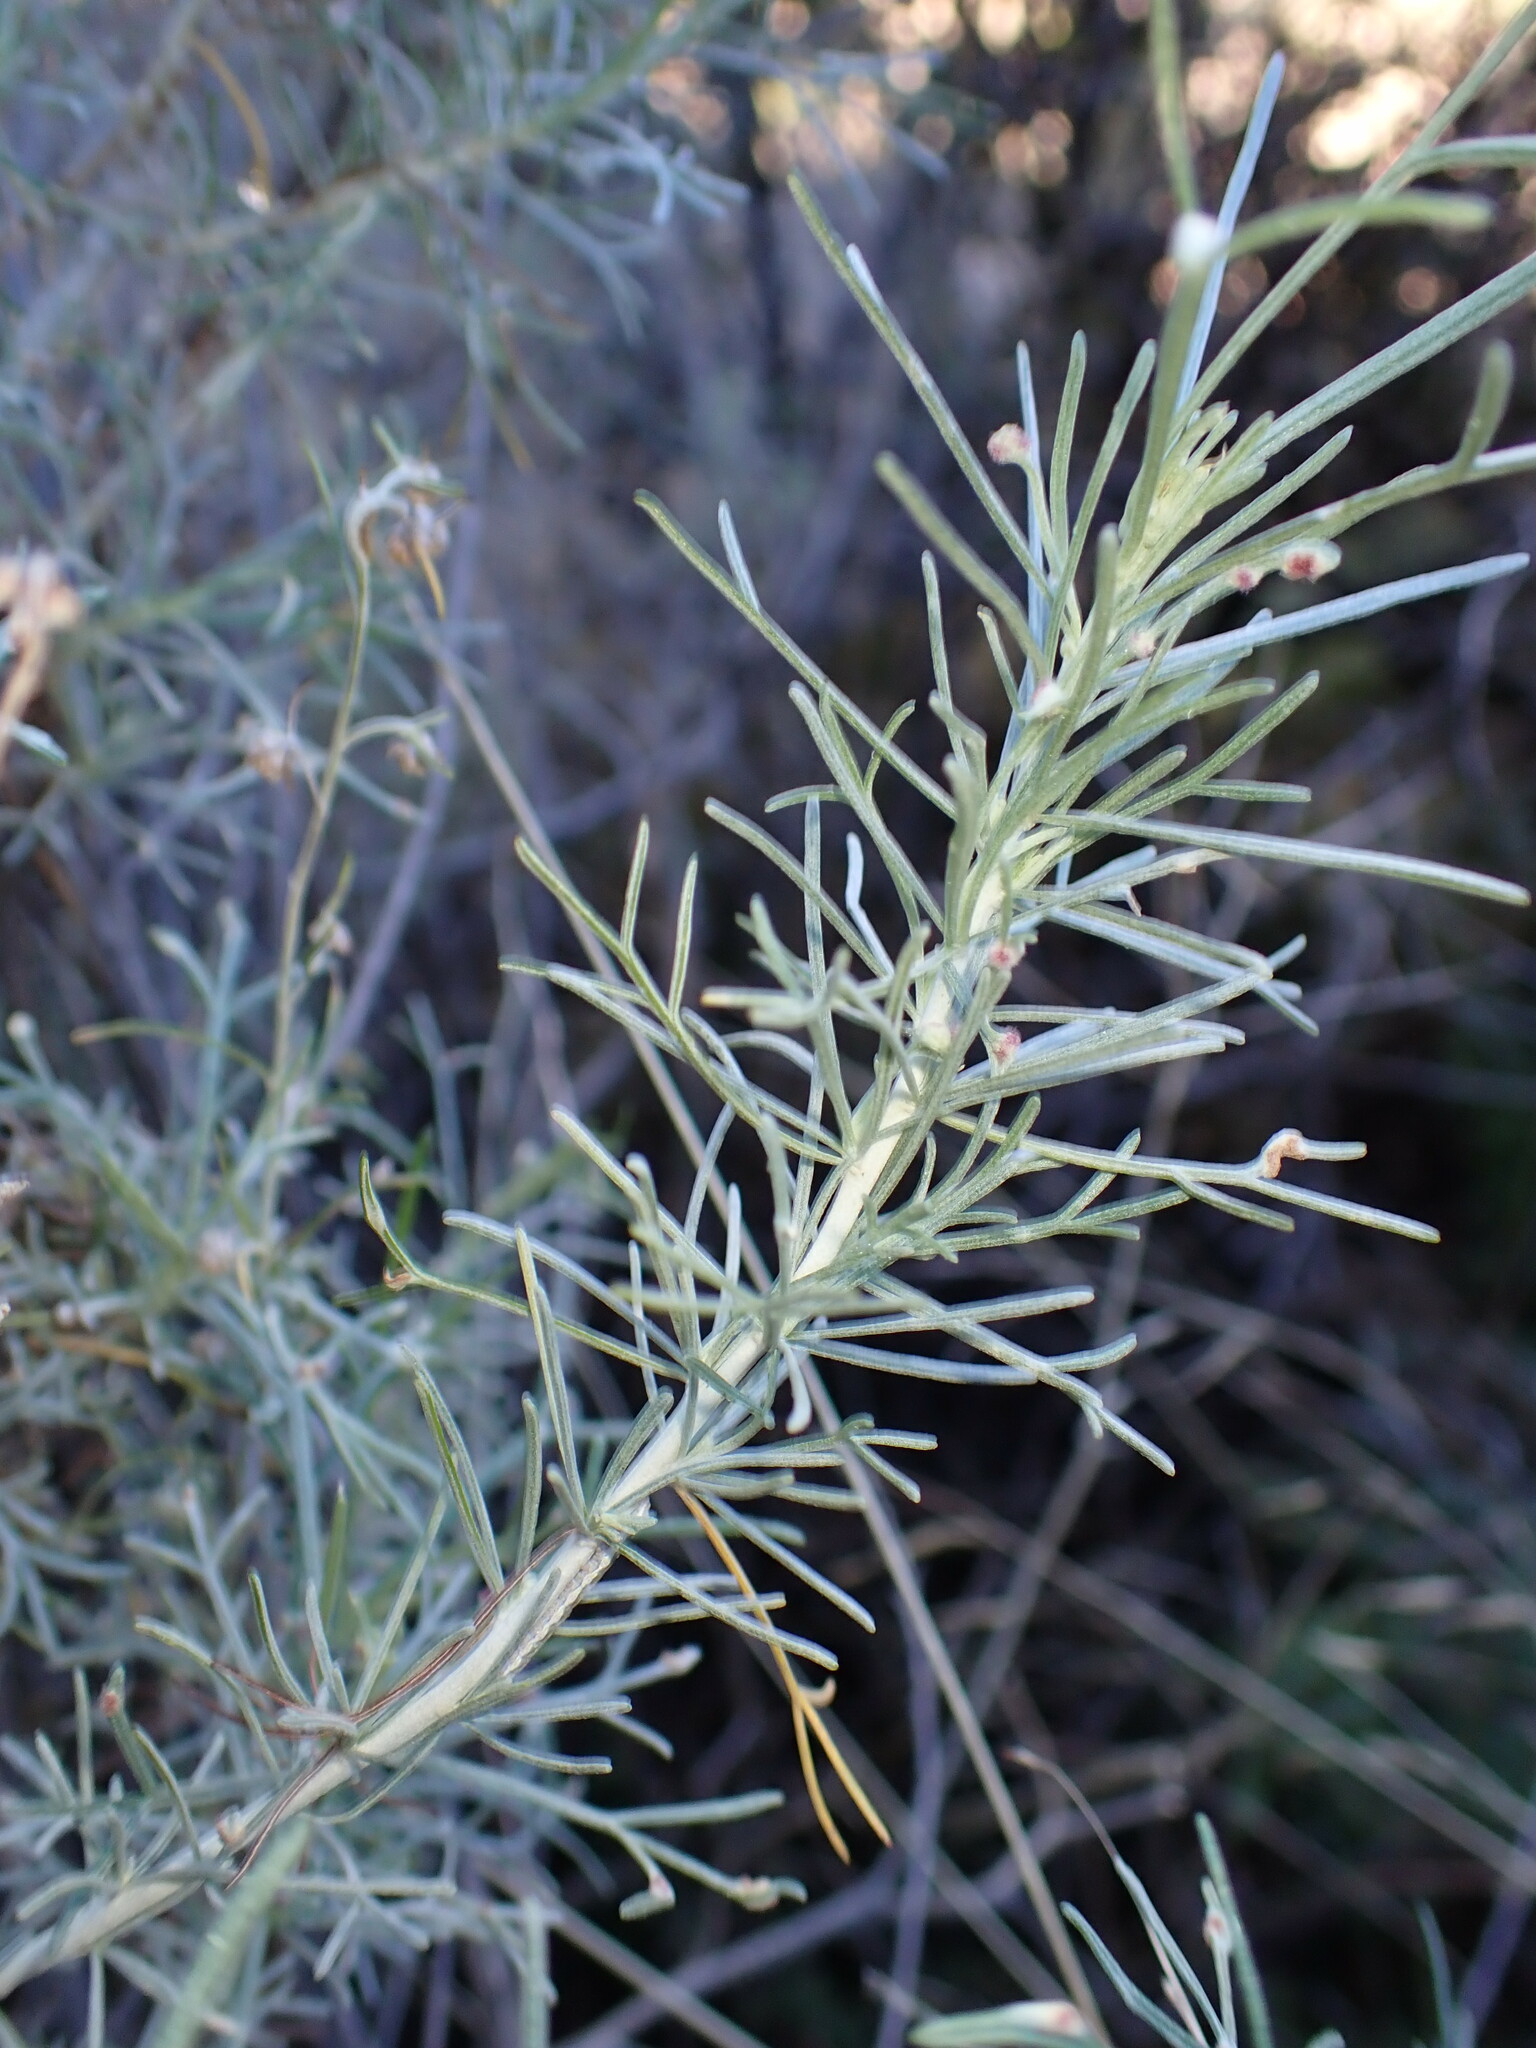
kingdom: Plantae
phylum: Tracheophyta
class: Magnoliopsida
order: Asterales
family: Asteraceae
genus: Artemisia
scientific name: Artemisia californica
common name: California sagebrush
